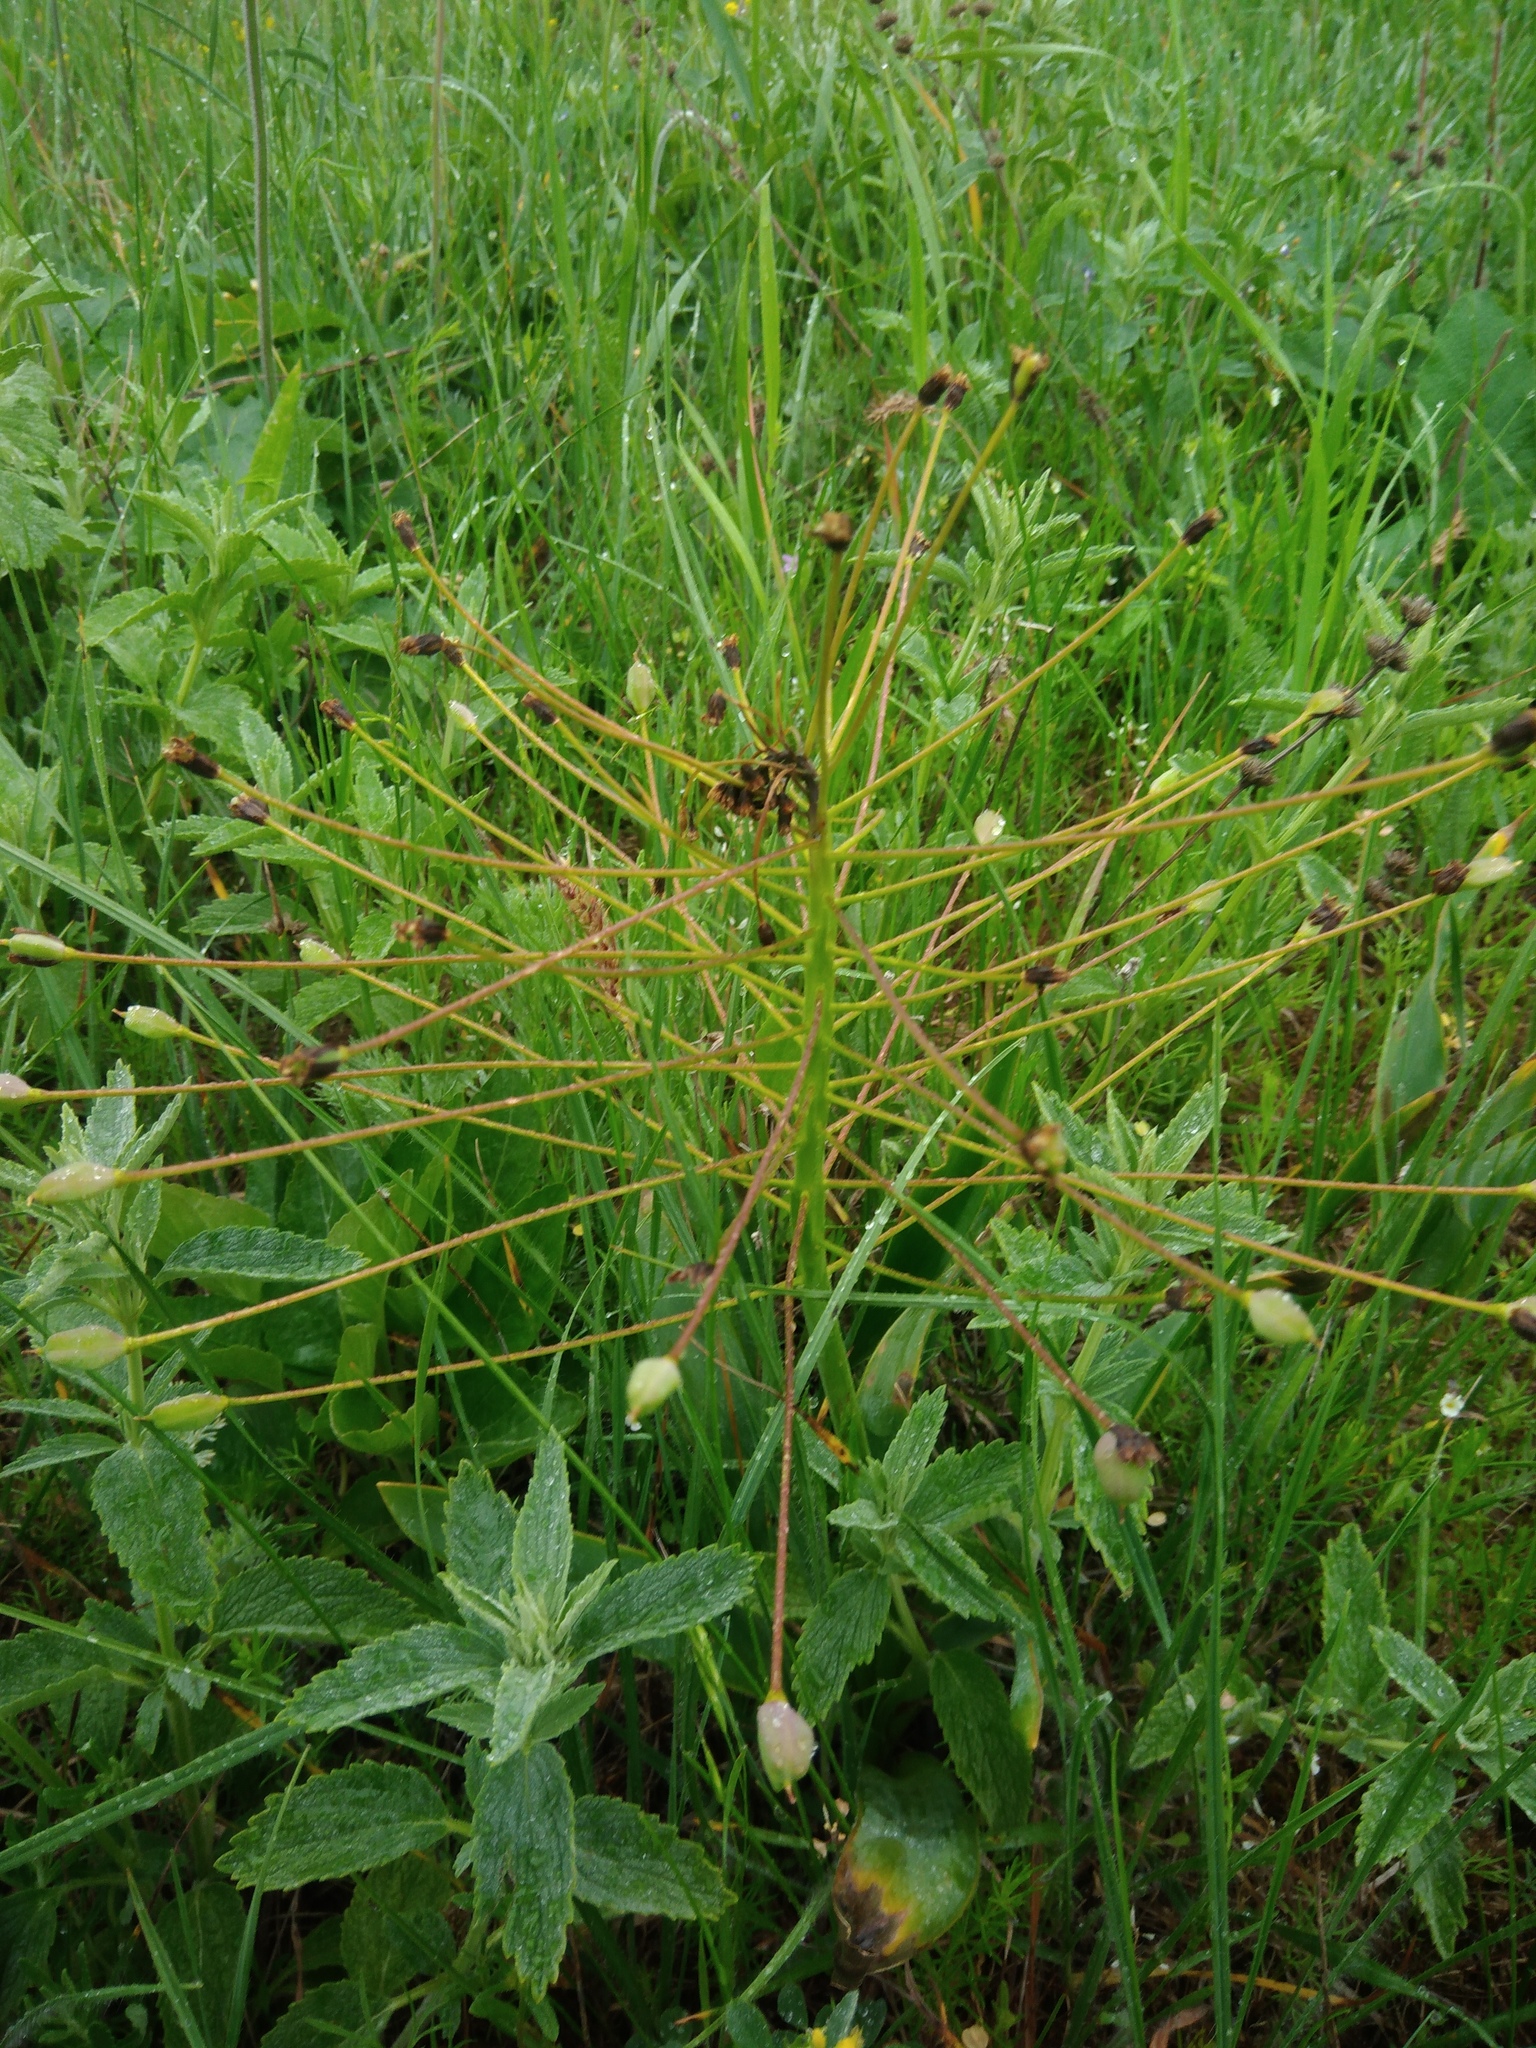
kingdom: Plantae
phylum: Tracheophyta
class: Liliopsida
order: Asparagales
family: Asparagaceae
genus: Bellevalia
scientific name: Bellevalia speciosa
